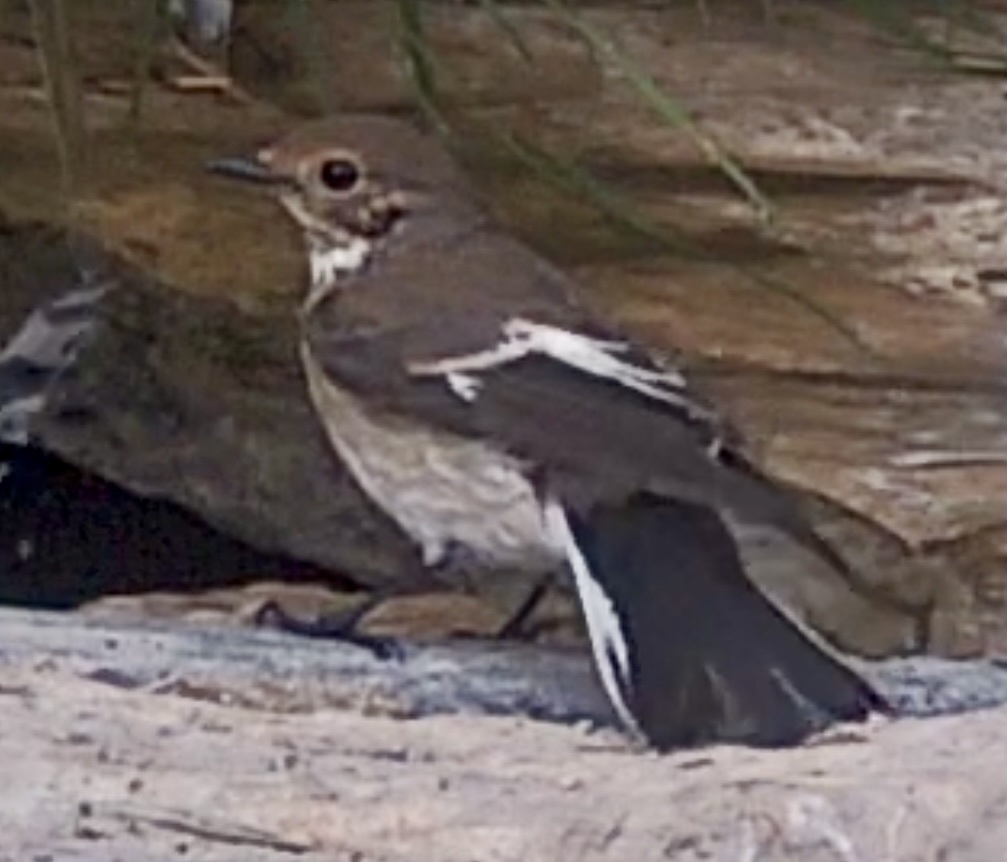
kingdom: Animalia
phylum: Chordata
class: Aves
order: Passeriformes
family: Muscicapidae
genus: Ficedula
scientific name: Ficedula hypoleuca
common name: European pied flycatcher
